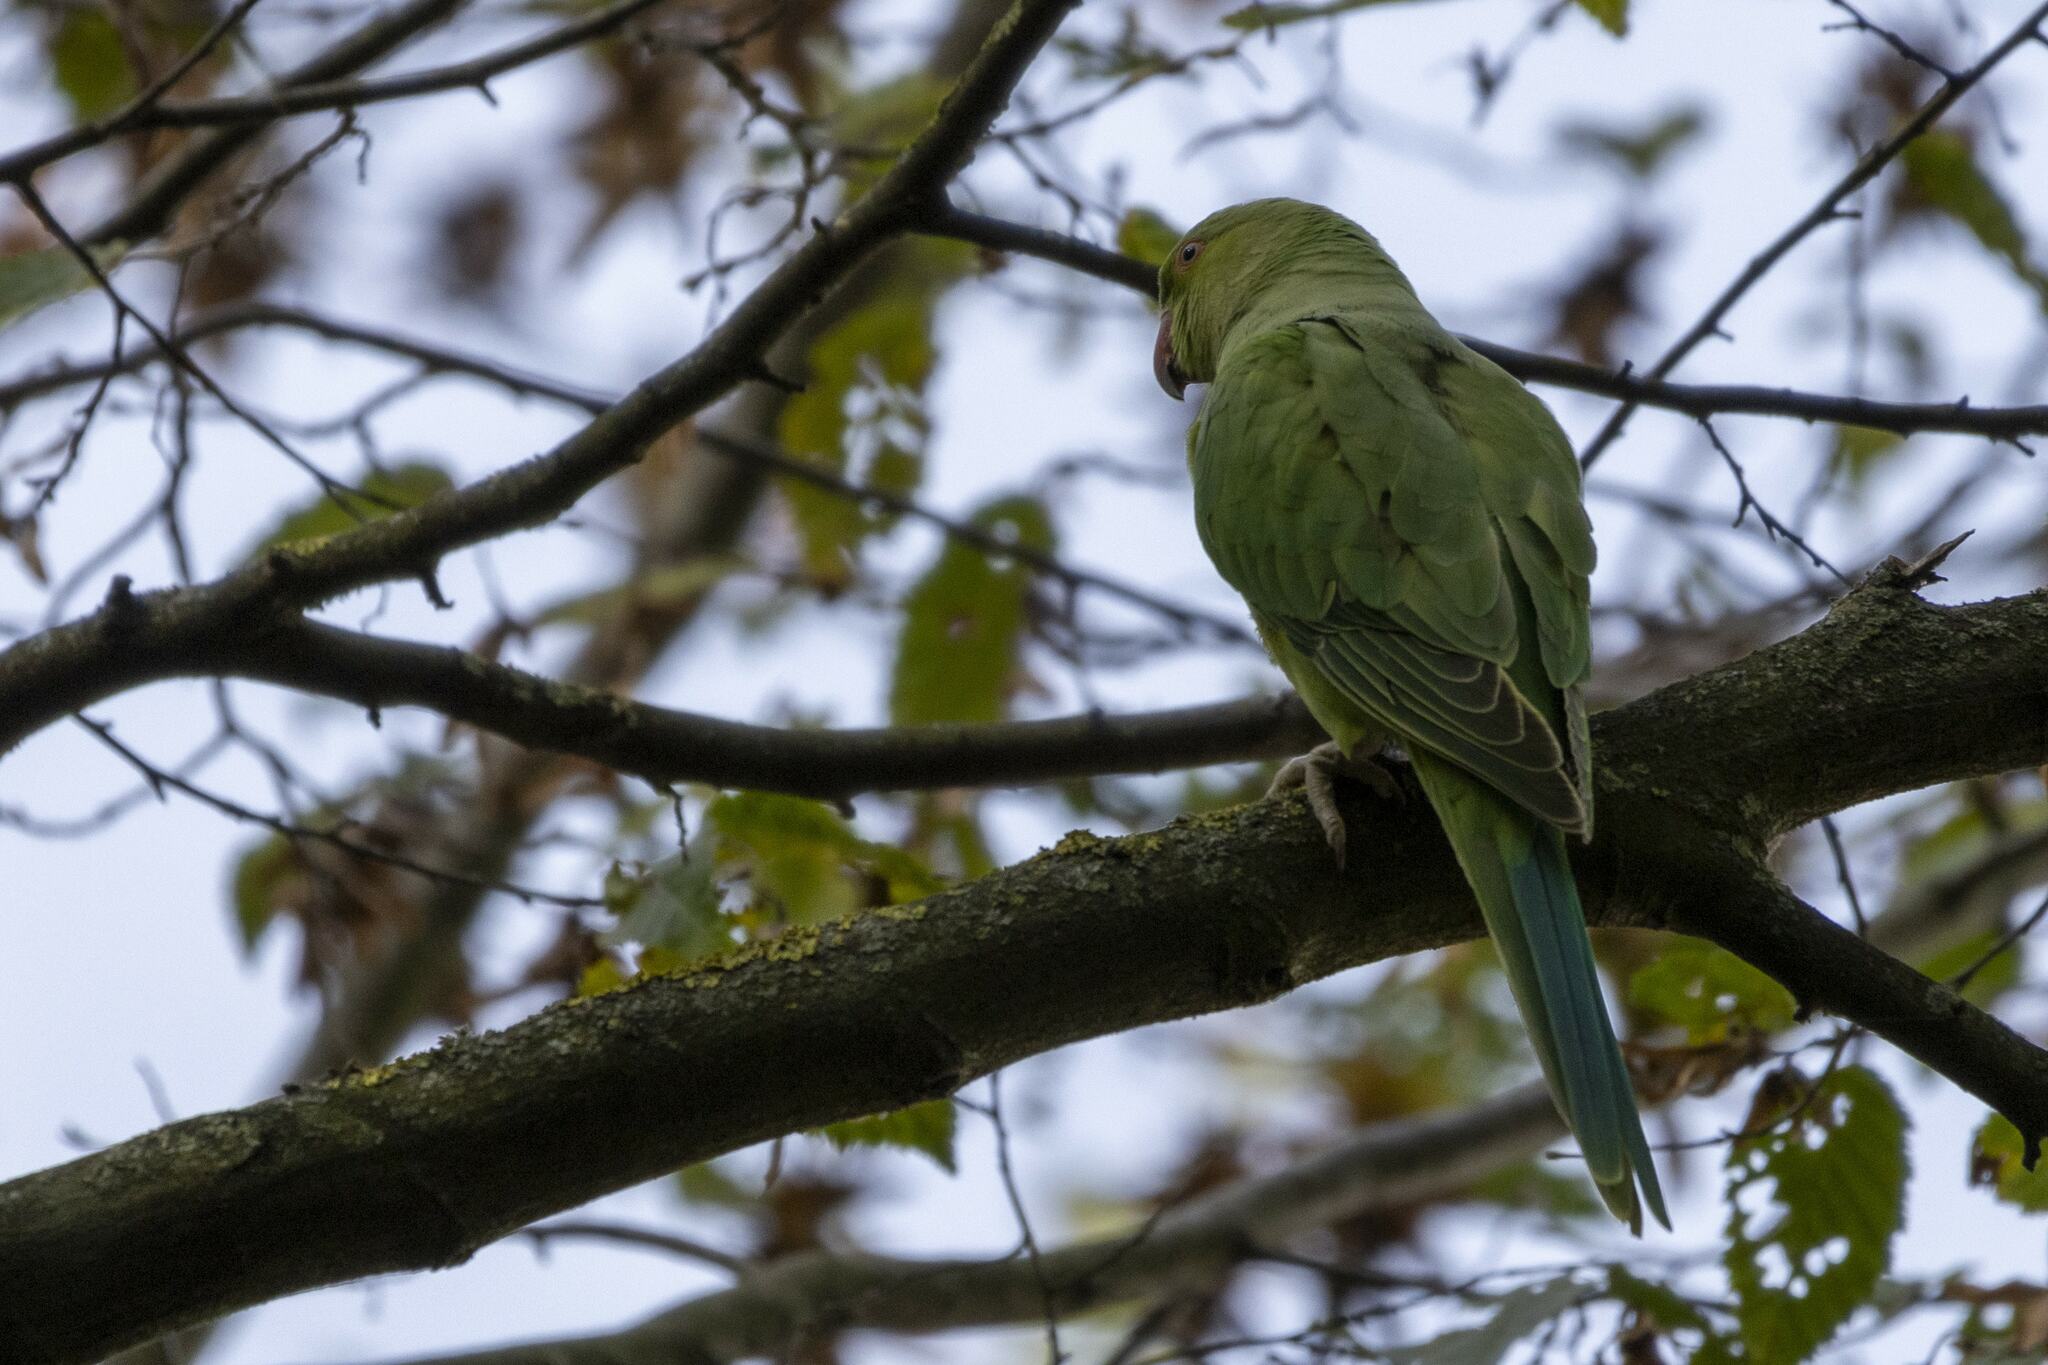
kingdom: Animalia
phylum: Chordata
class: Aves
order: Psittaciformes
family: Psittacidae
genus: Psittacula
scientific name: Psittacula krameri
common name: Rose-ringed parakeet
